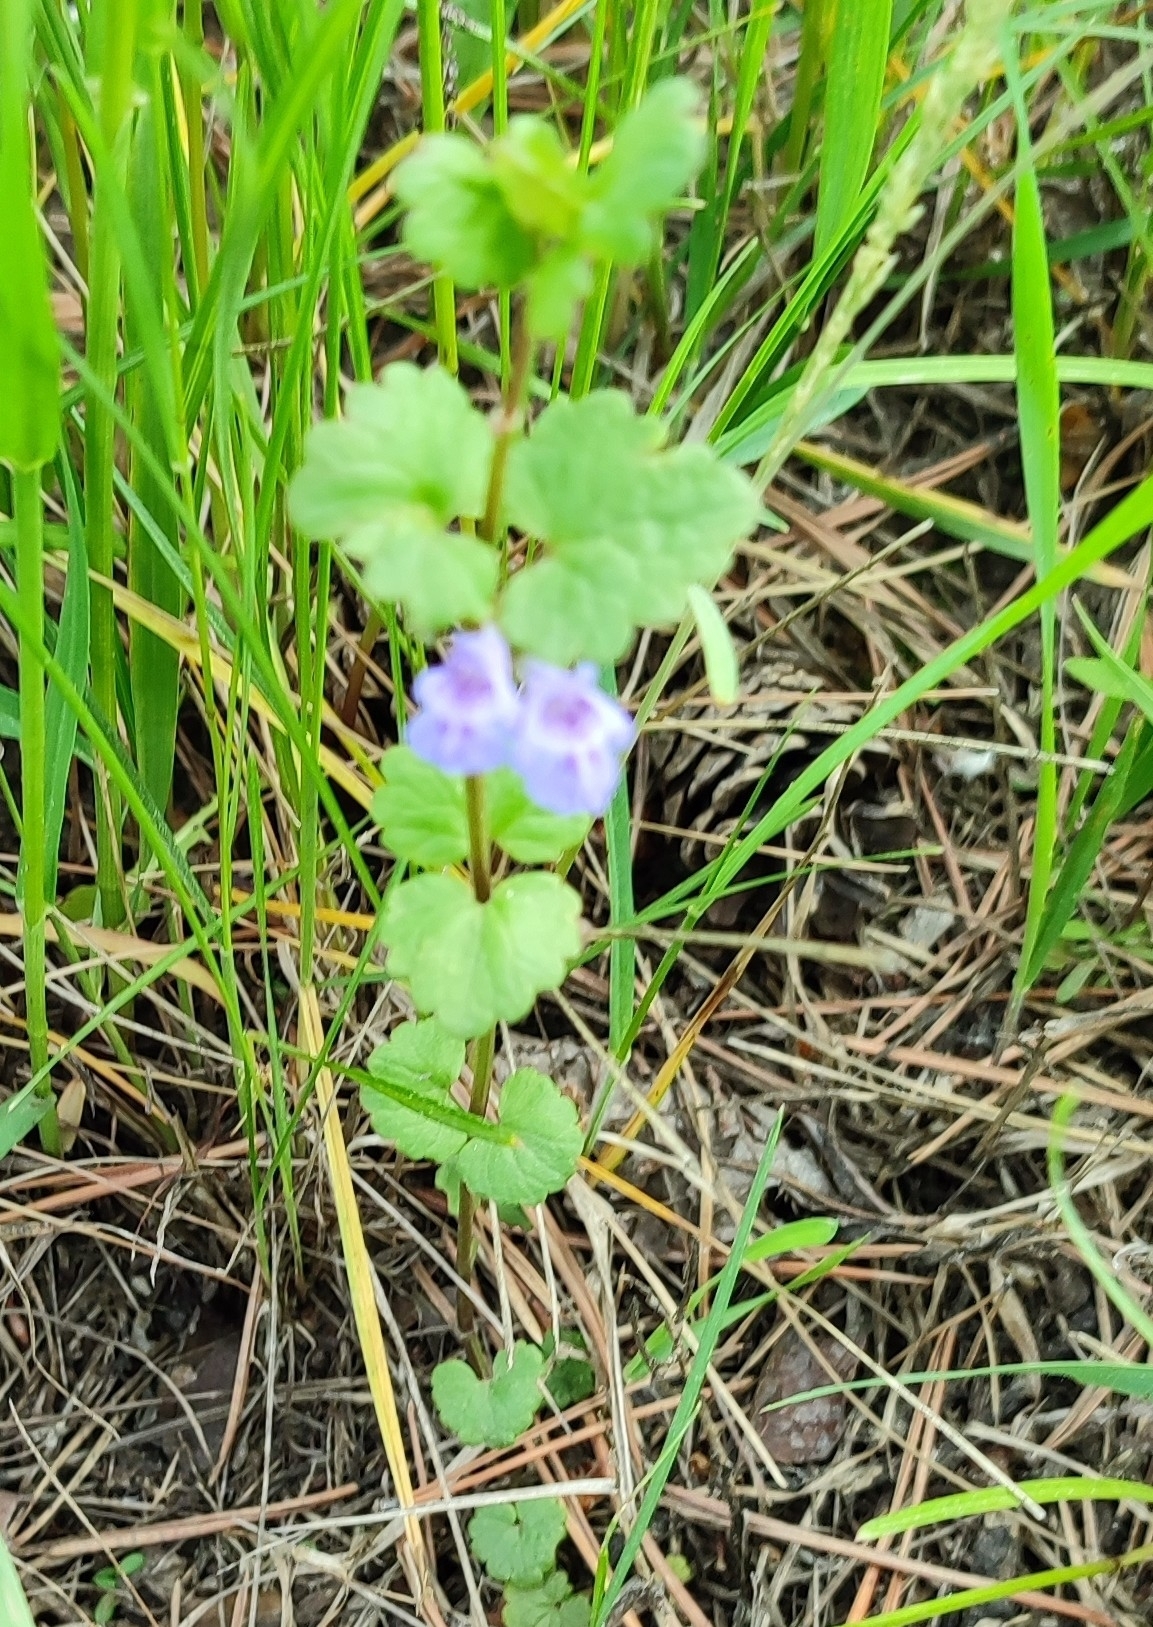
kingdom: Plantae
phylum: Tracheophyta
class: Magnoliopsida
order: Lamiales
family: Lamiaceae
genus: Glechoma
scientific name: Glechoma hederacea
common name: Ground ivy
